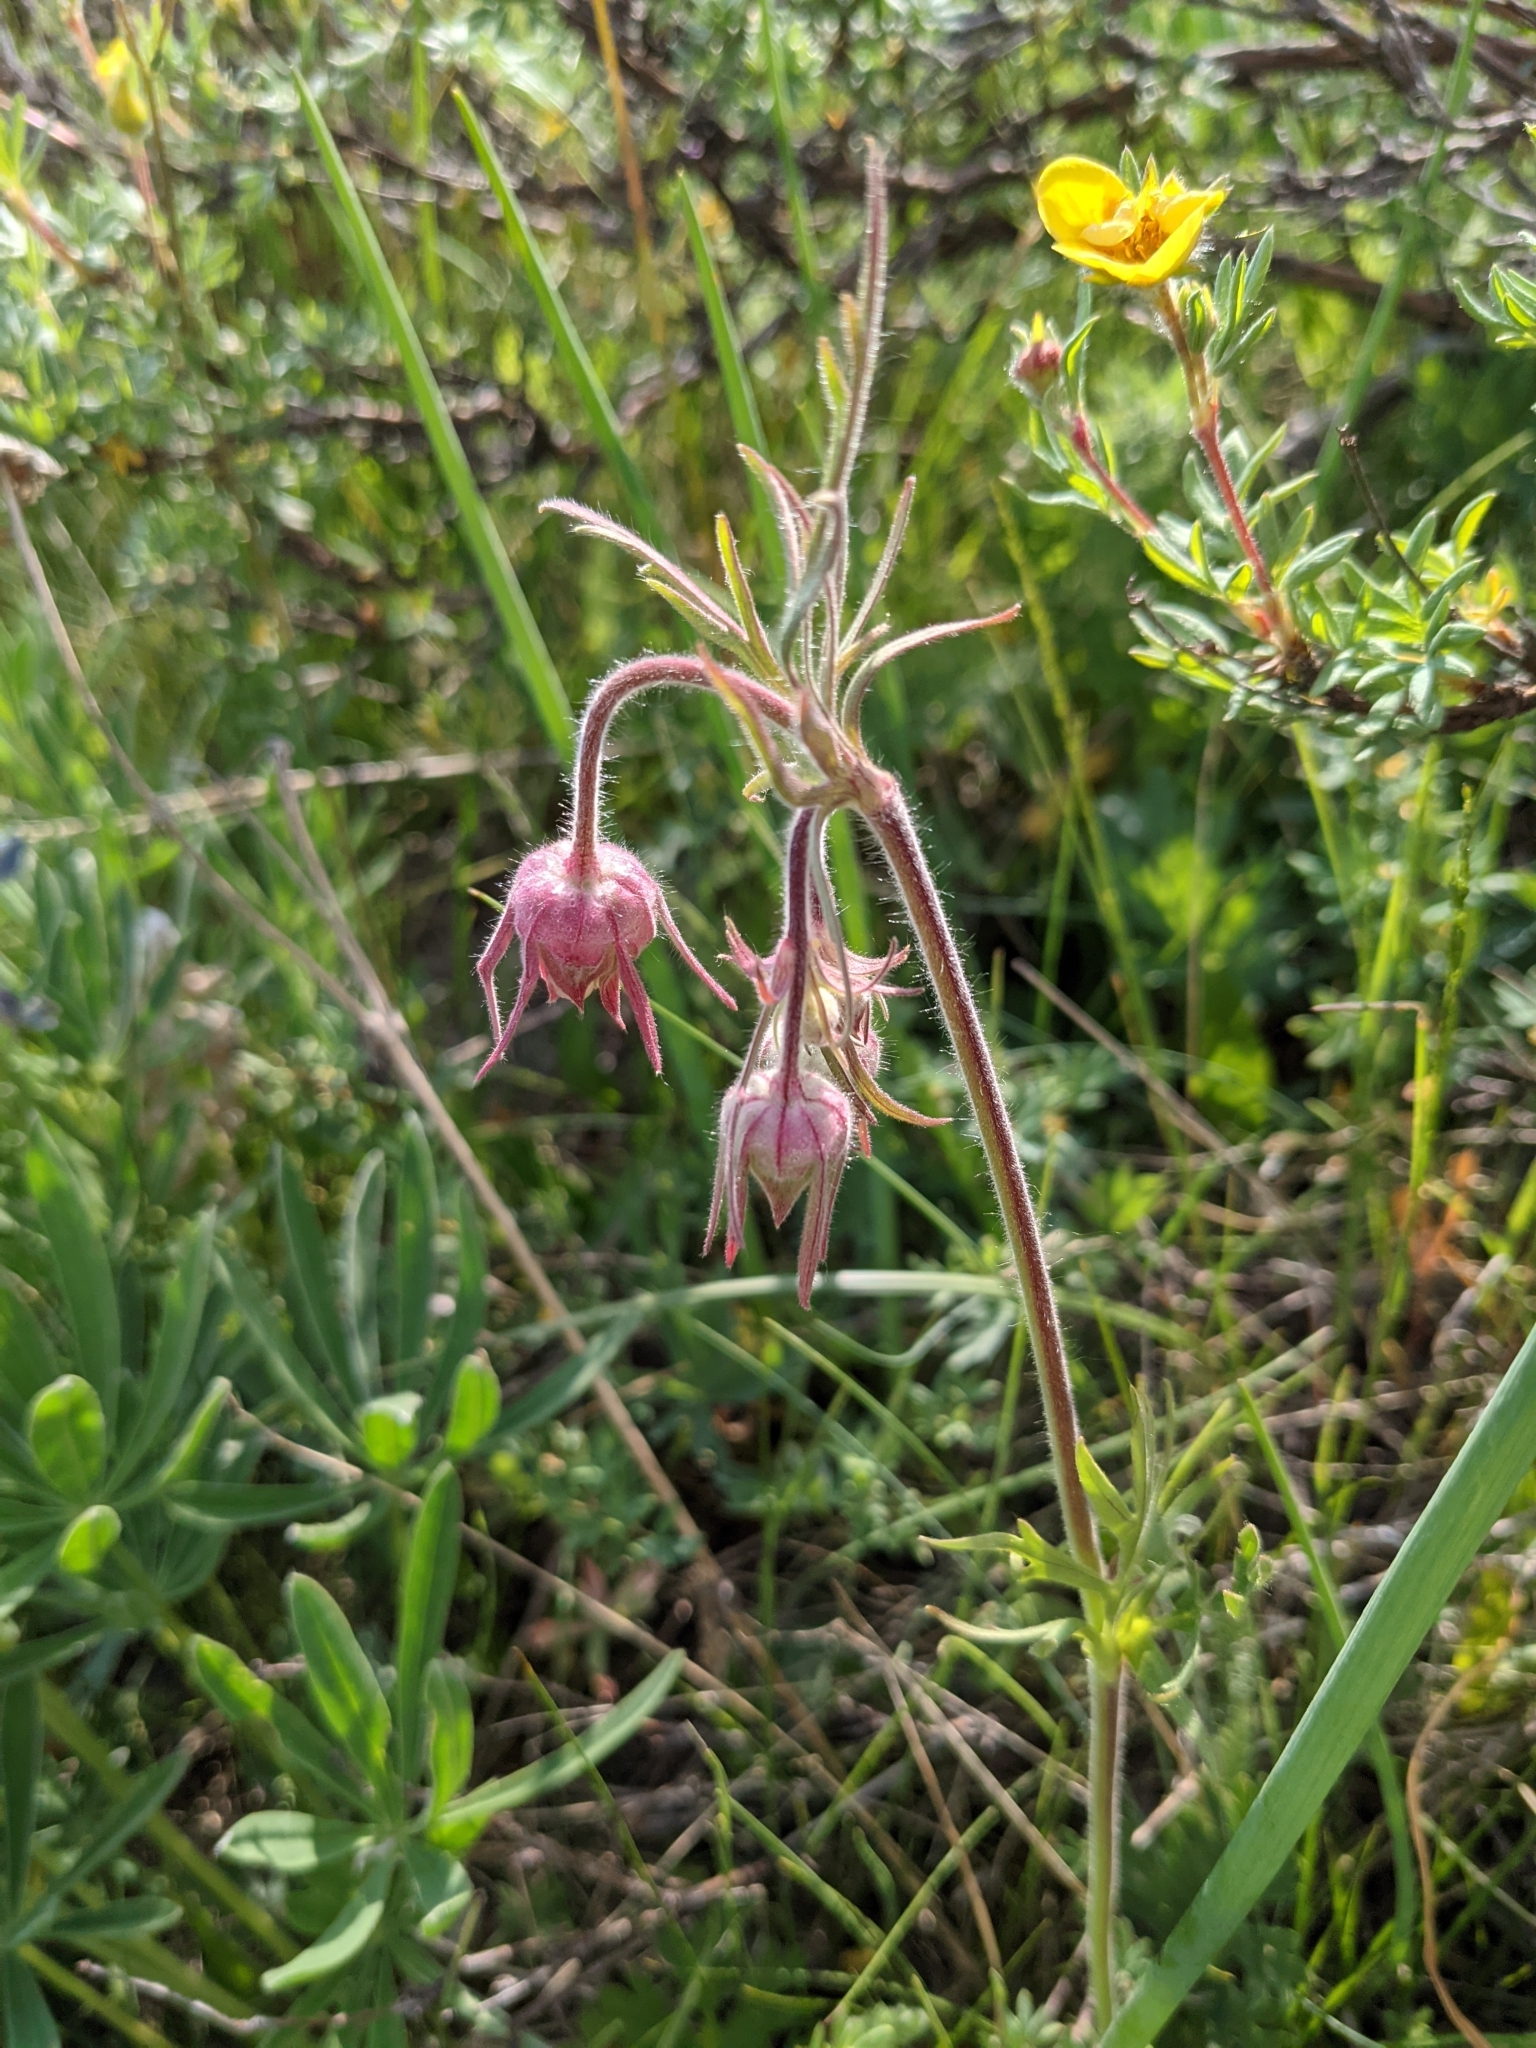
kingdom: Plantae
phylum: Tracheophyta
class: Magnoliopsida
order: Rosales
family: Rosaceae
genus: Geum
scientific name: Geum triflorum
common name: Old man's whiskers
